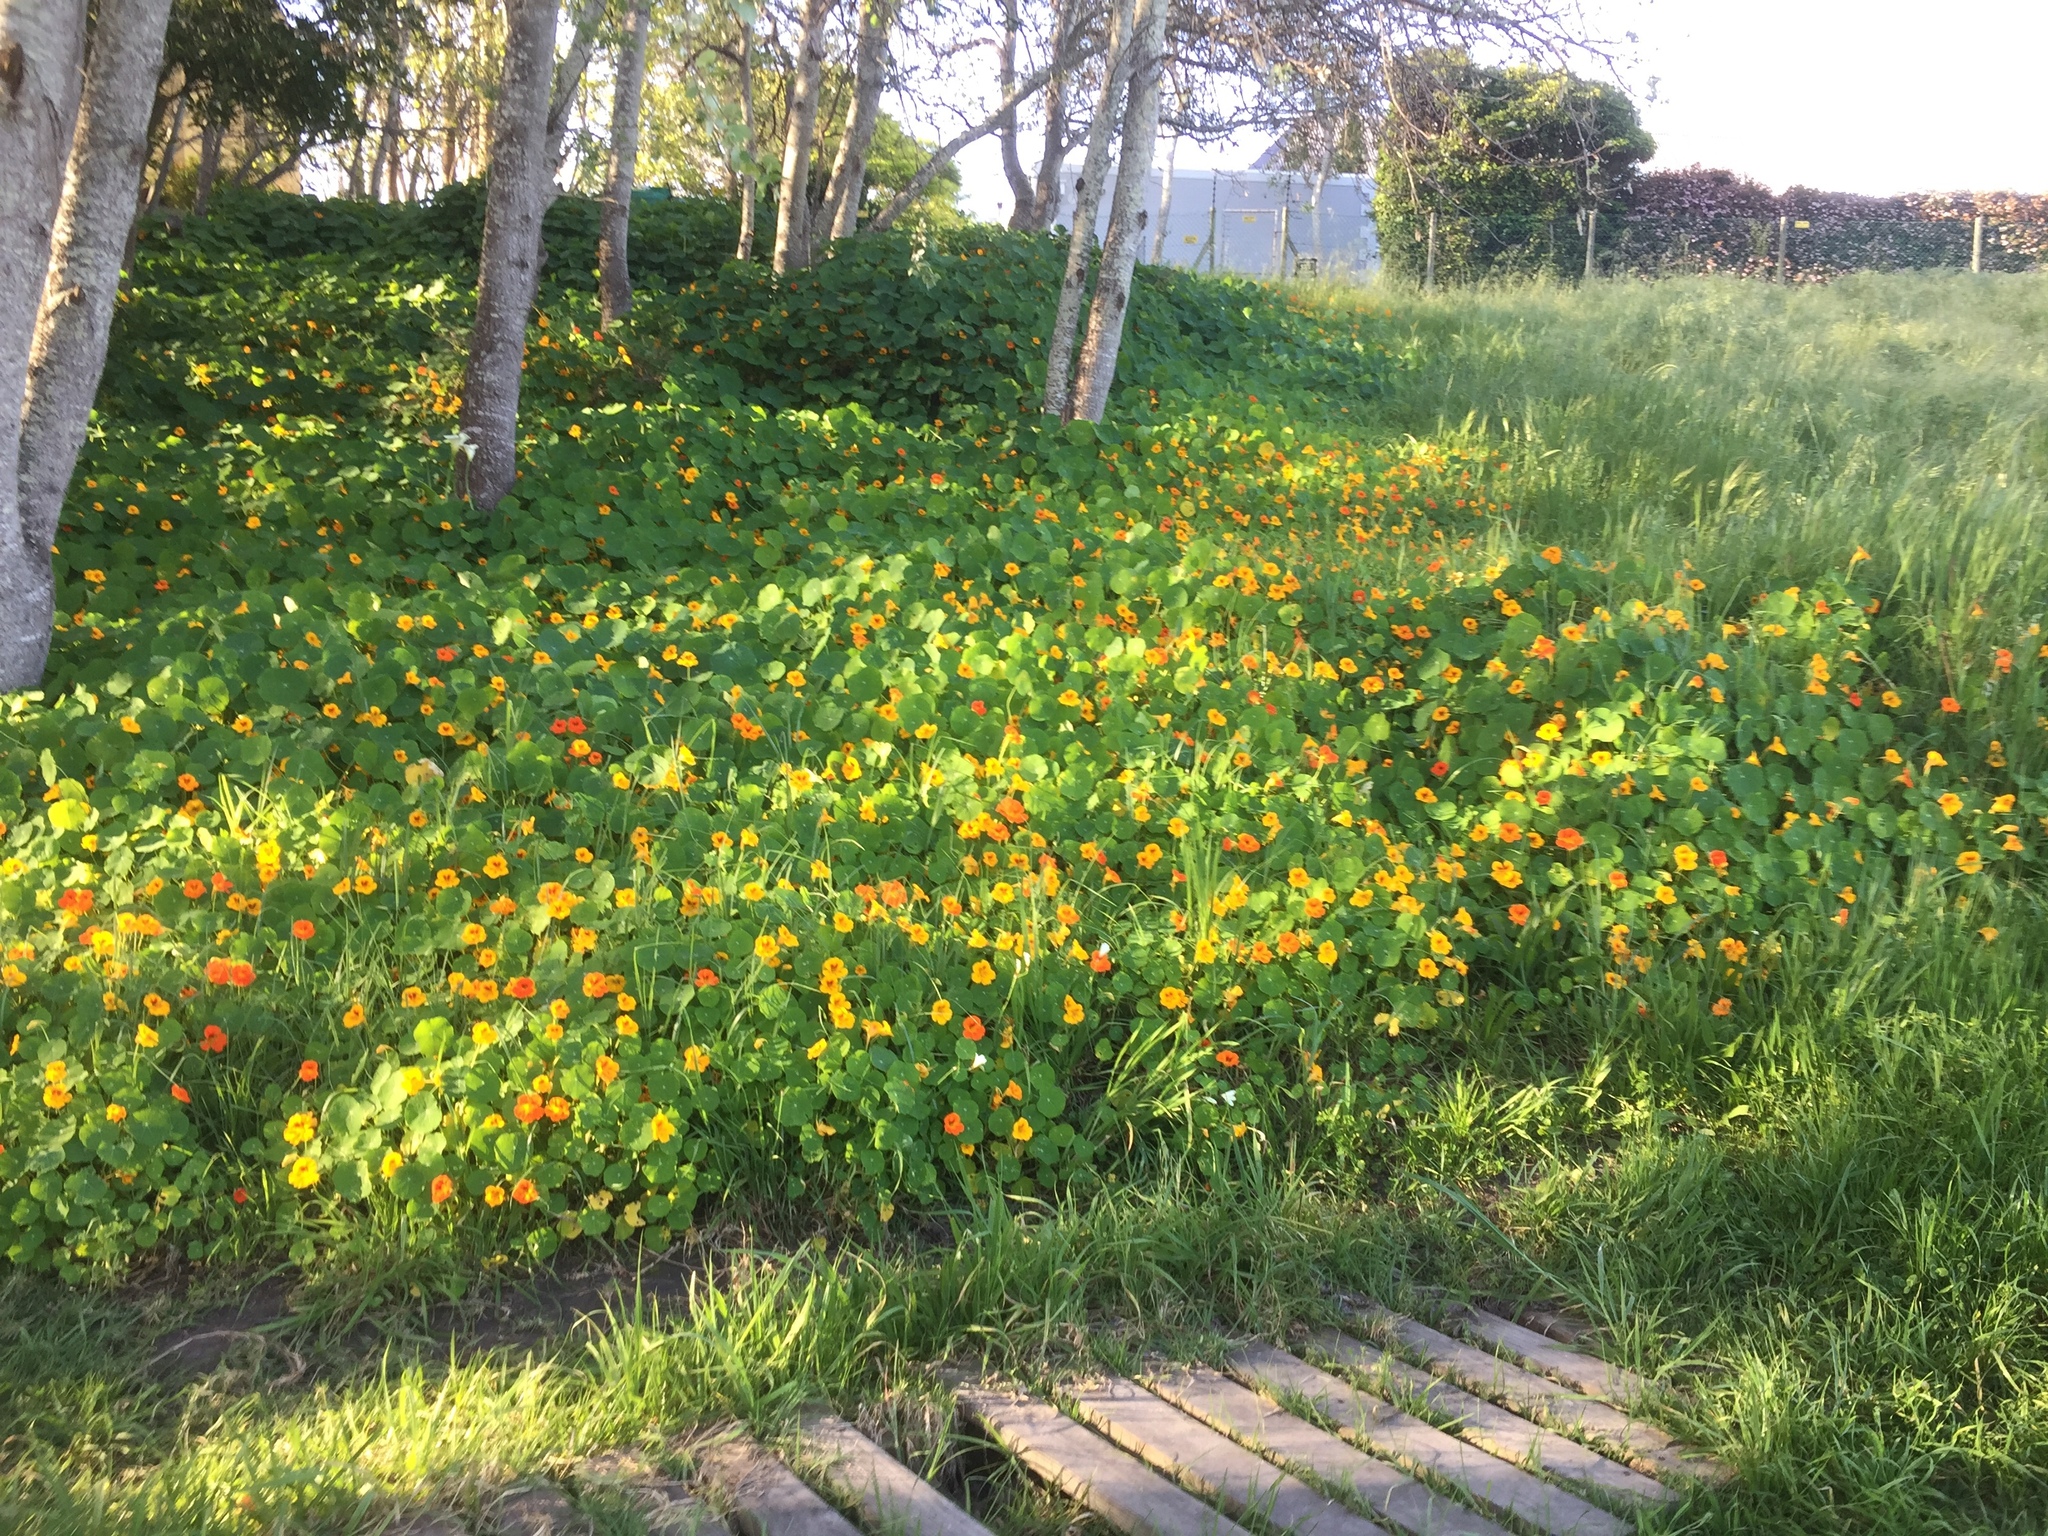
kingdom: Plantae
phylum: Tracheophyta
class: Magnoliopsida
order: Brassicales
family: Tropaeolaceae
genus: Tropaeolum
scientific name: Tropaeolum majus
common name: Nasturtium
